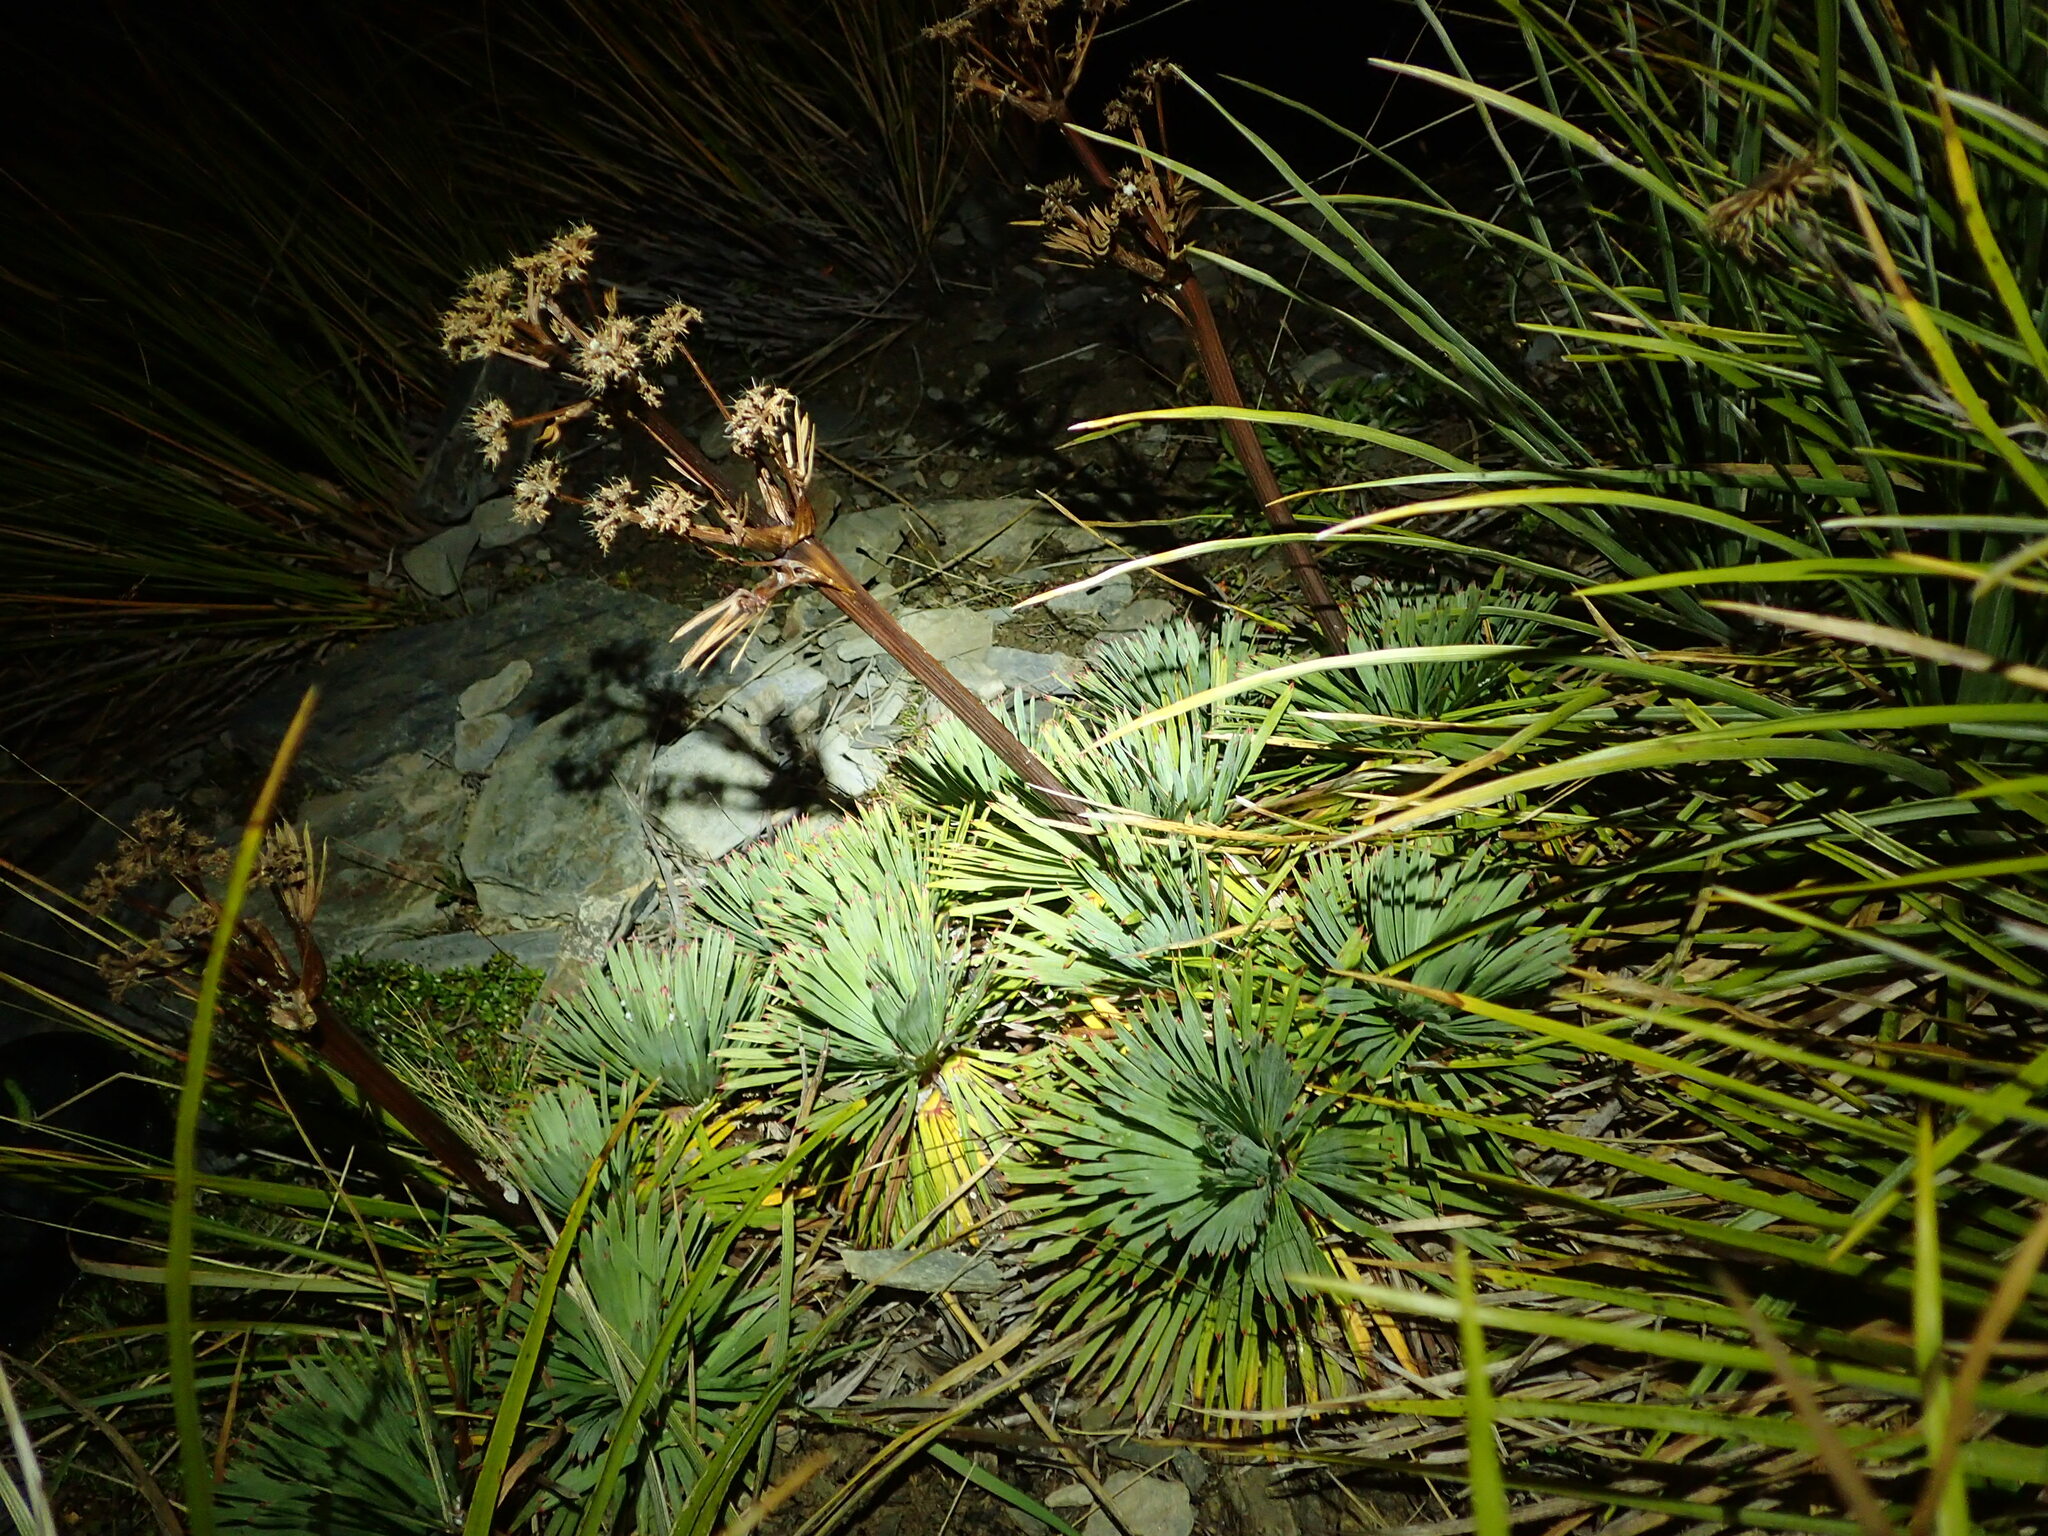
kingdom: Plantae
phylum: Tracheophyta
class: Magnoliopsida
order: Apiales
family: Apiaceae
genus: Aciphylla
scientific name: Aciphylla spedenii
